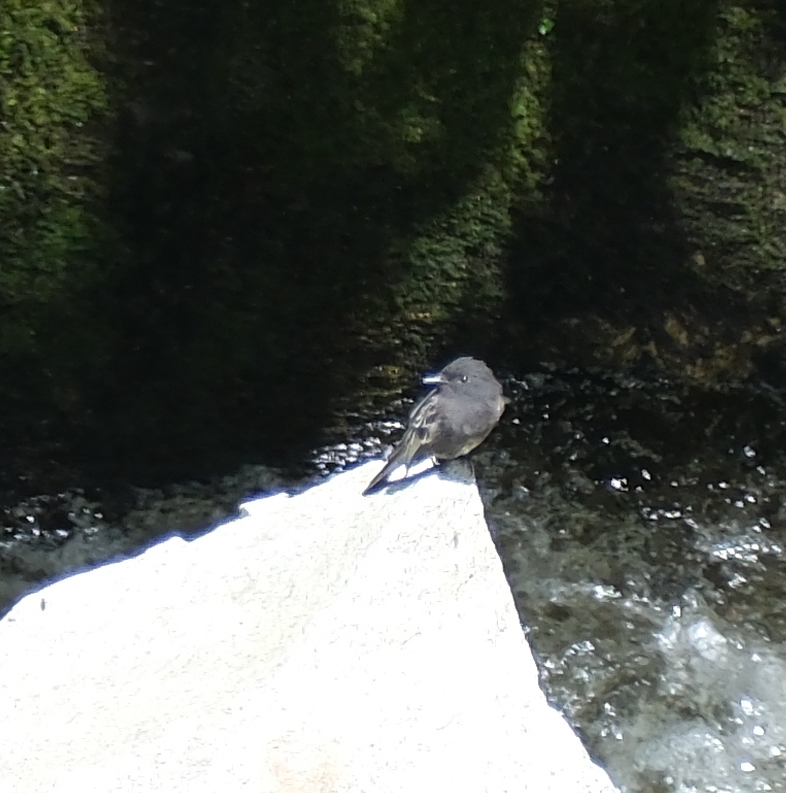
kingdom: Animalia
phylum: Chordata
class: Aves
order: Passeriformes
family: Tyrannidae
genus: Sayornis
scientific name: Sayornis nigricans
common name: Black phoebe
